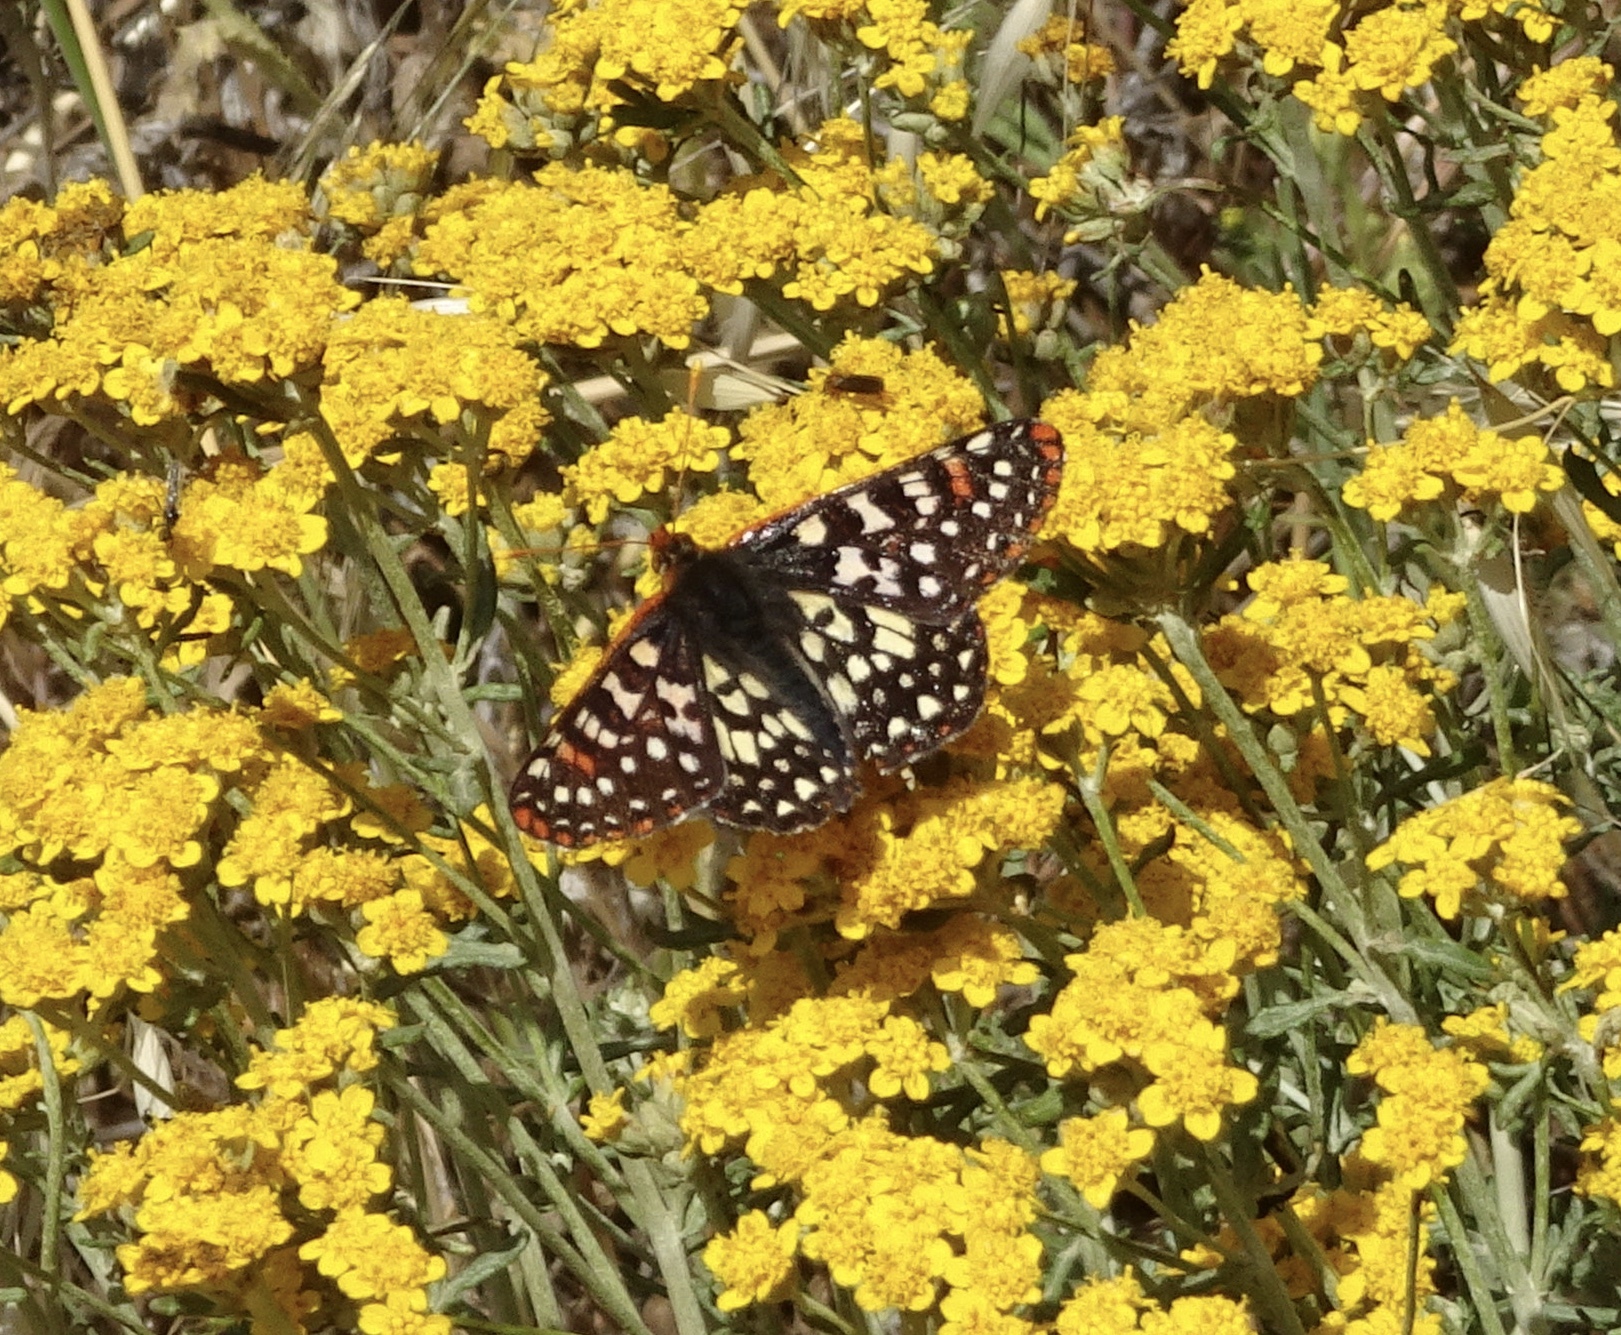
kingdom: Animalia
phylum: Arthropoda
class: Insecta
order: Lepidoptera
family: Nymphalidae
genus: Occidryas
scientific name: Occidryas chalcedona
